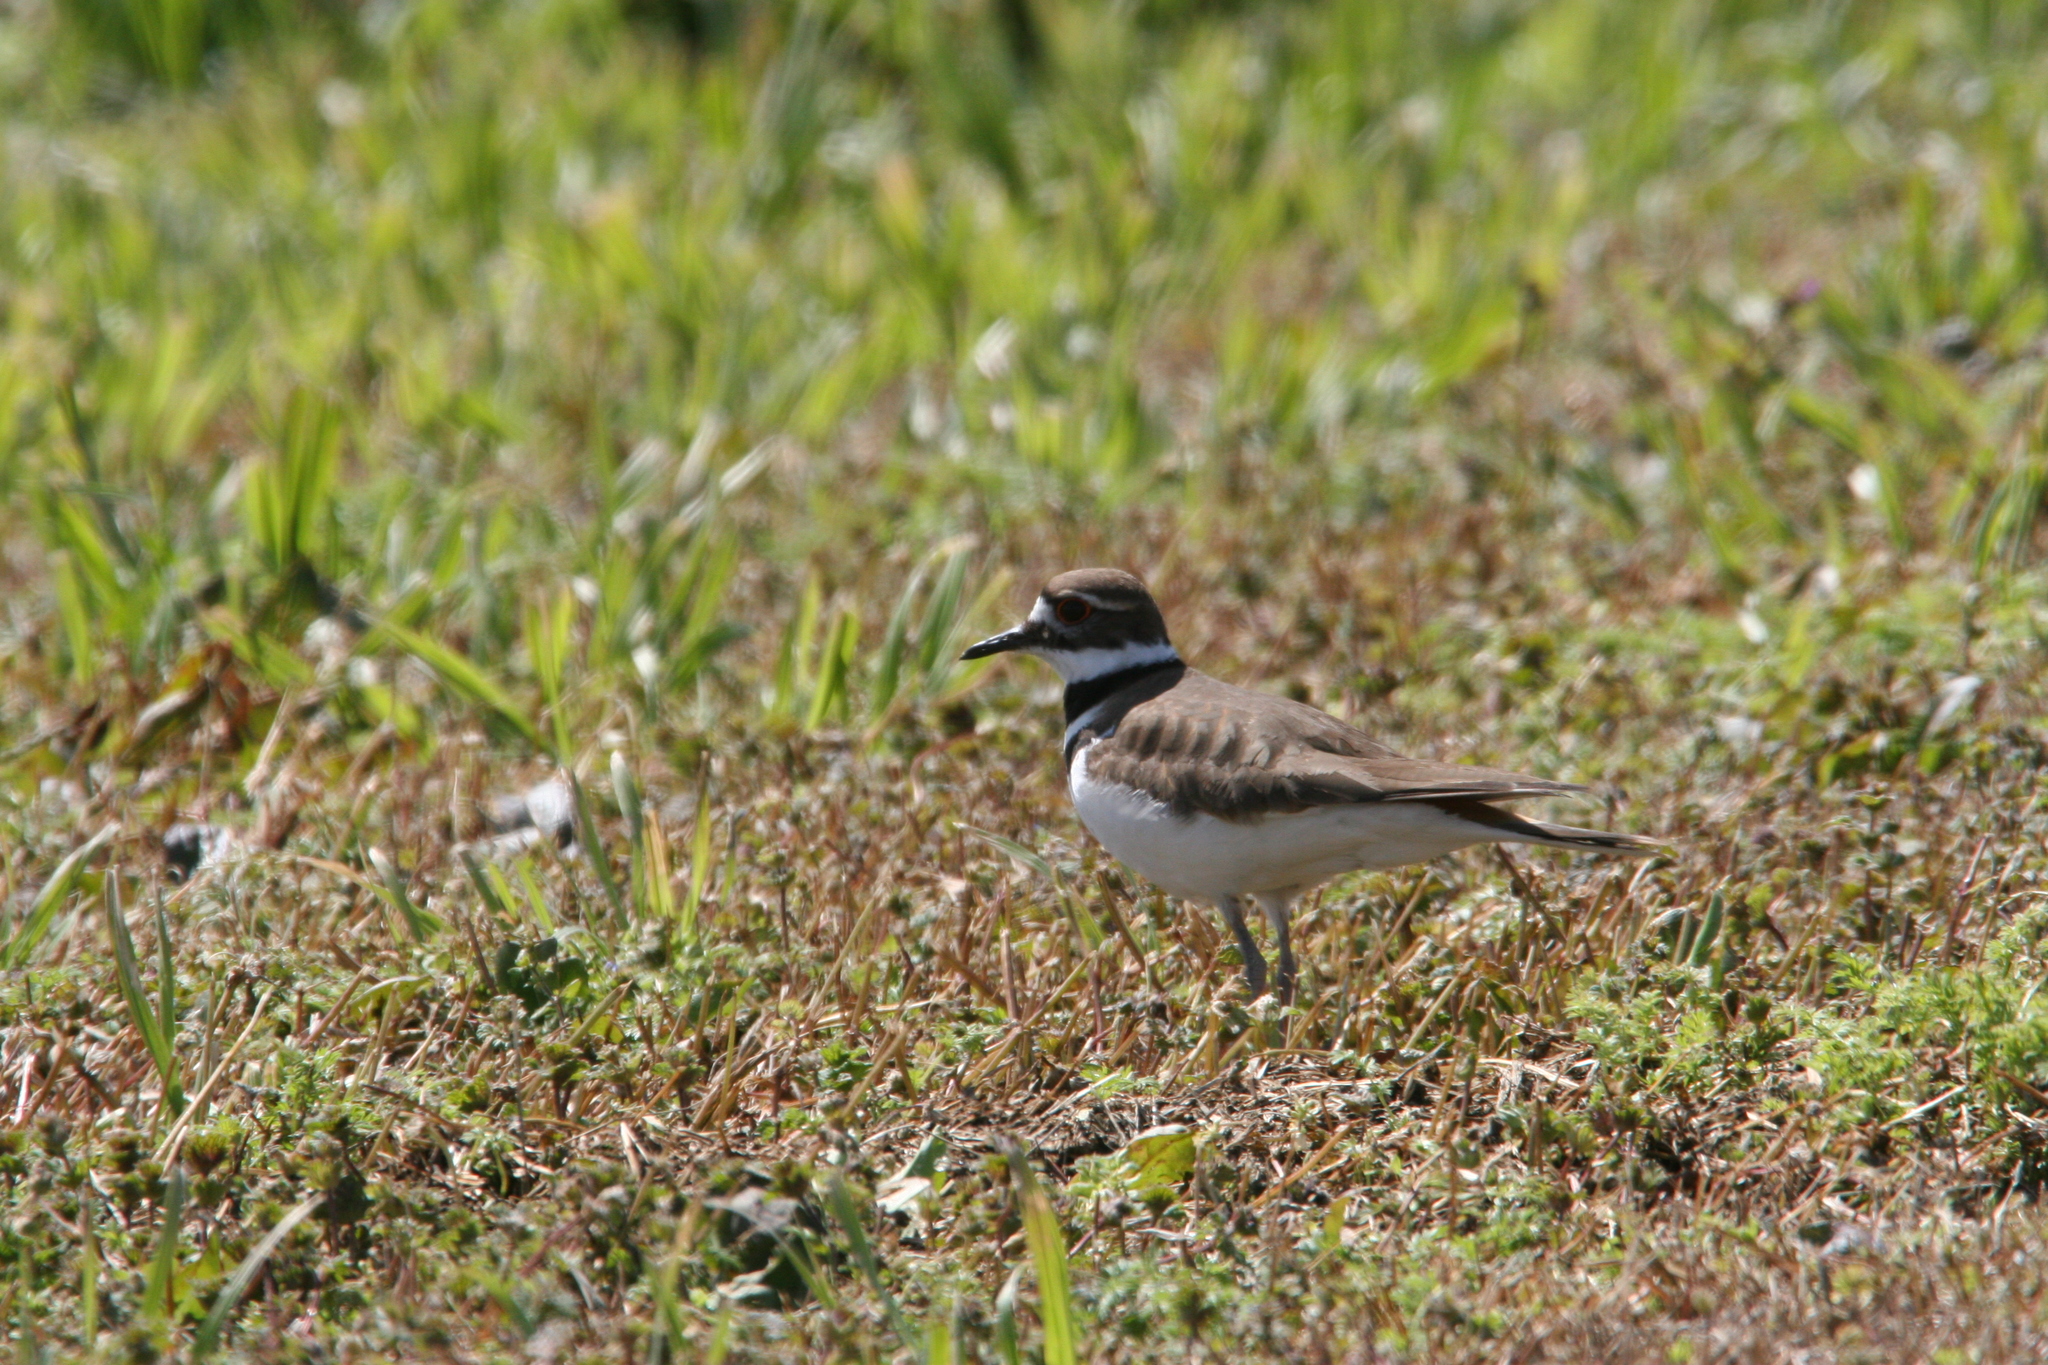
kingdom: Animalia
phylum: Chordata
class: Aves
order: Charadriiformes
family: Charadriidae
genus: Charadrius
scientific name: Charadrius vociferus
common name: Killdeer
